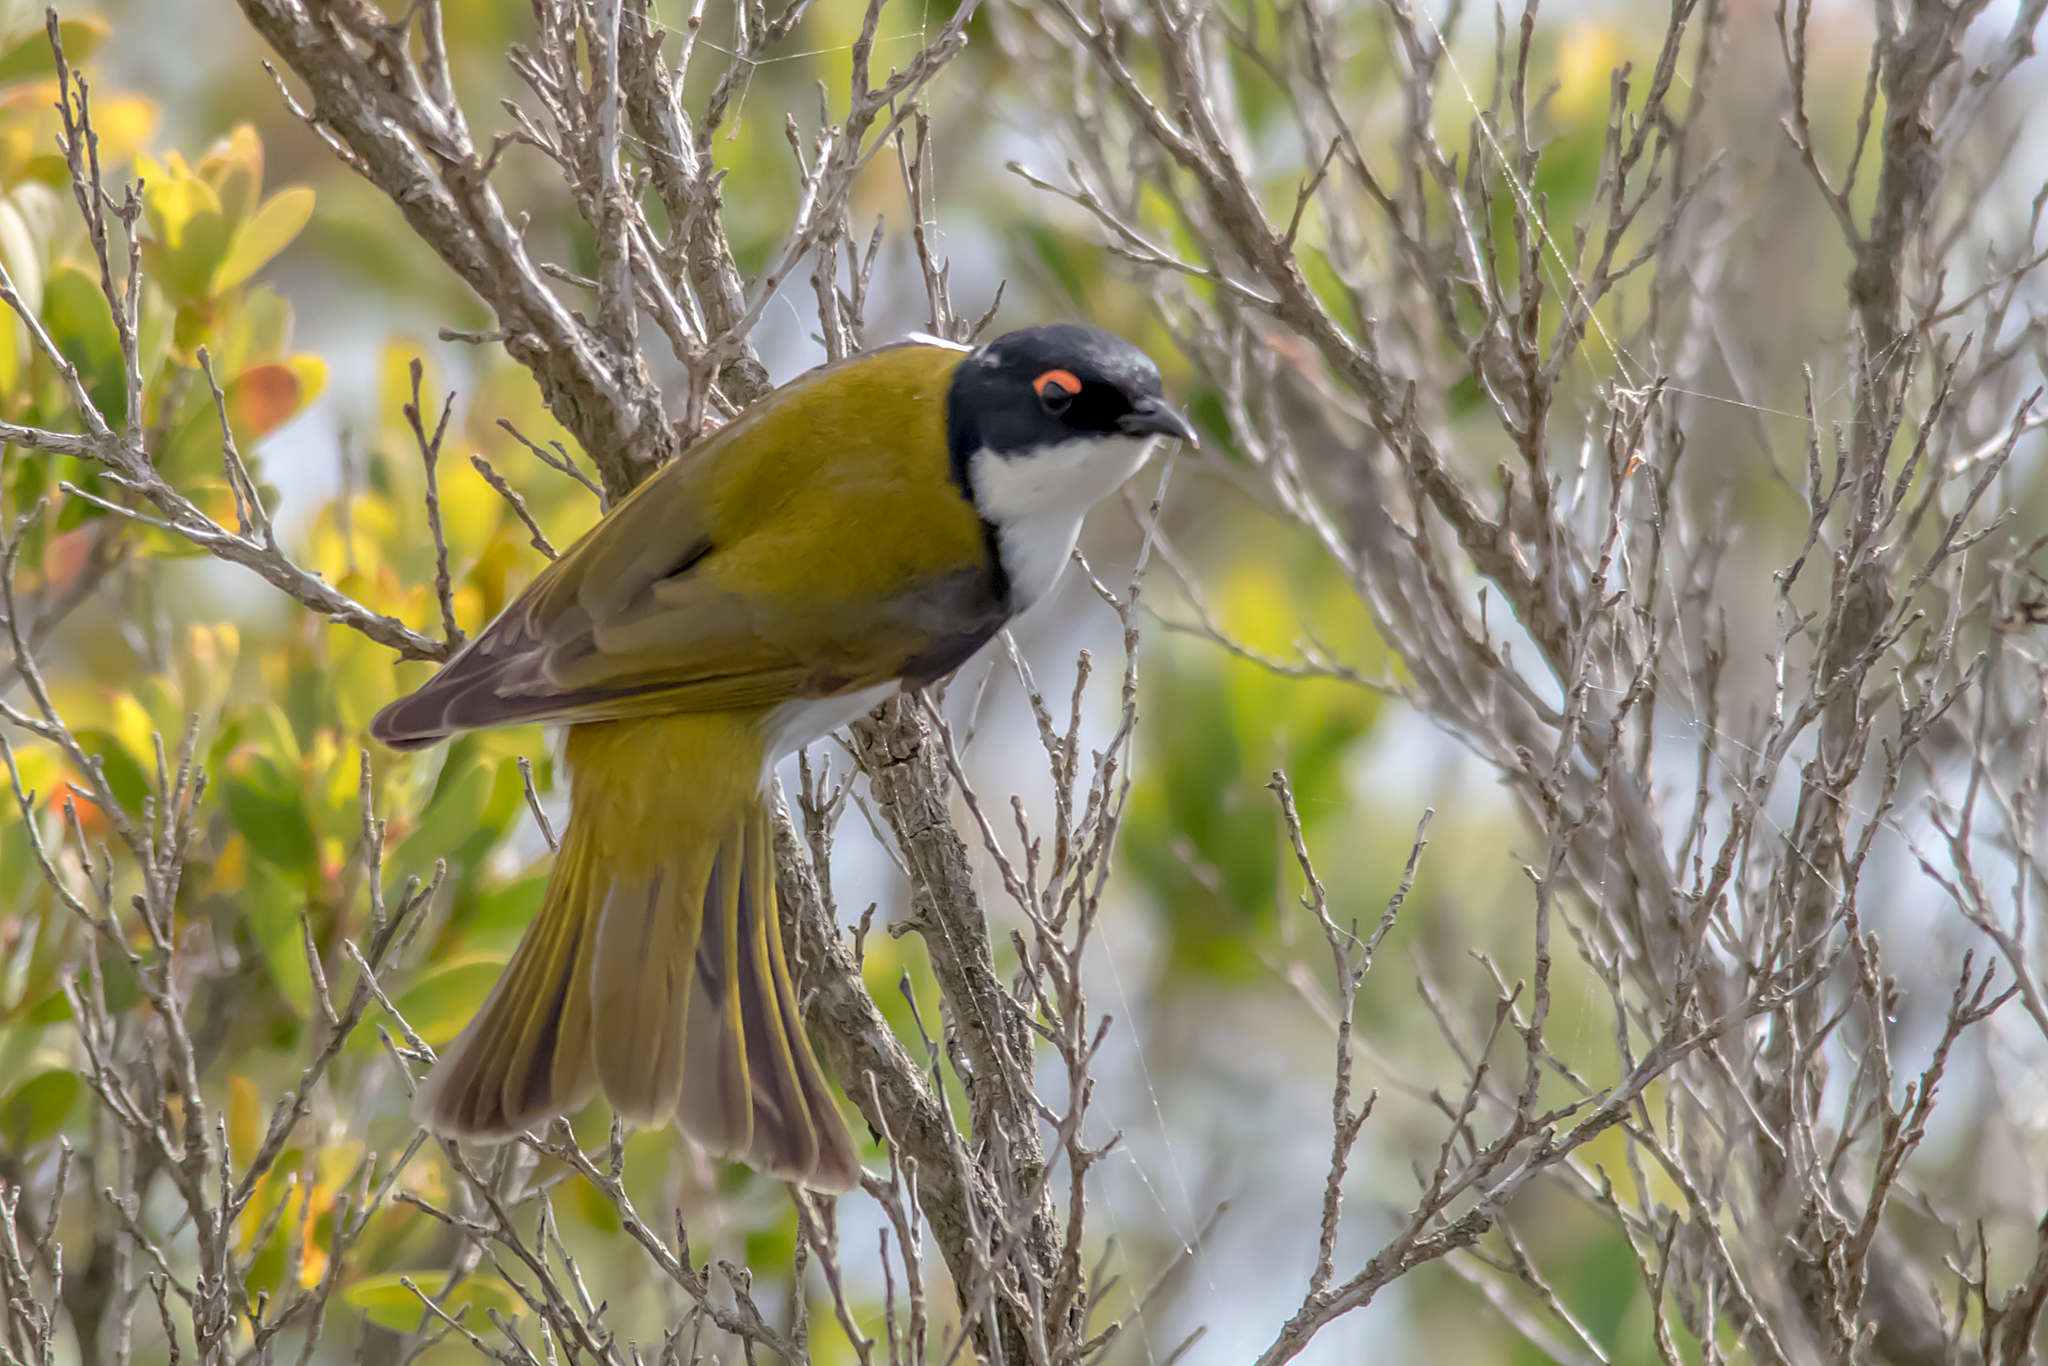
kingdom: Animalia
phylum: Chordata
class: Aves
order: Passeriformes
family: Meliphagidae
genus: Melithreptus
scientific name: Melithreptus lunatus
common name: White-naped honeyeater
